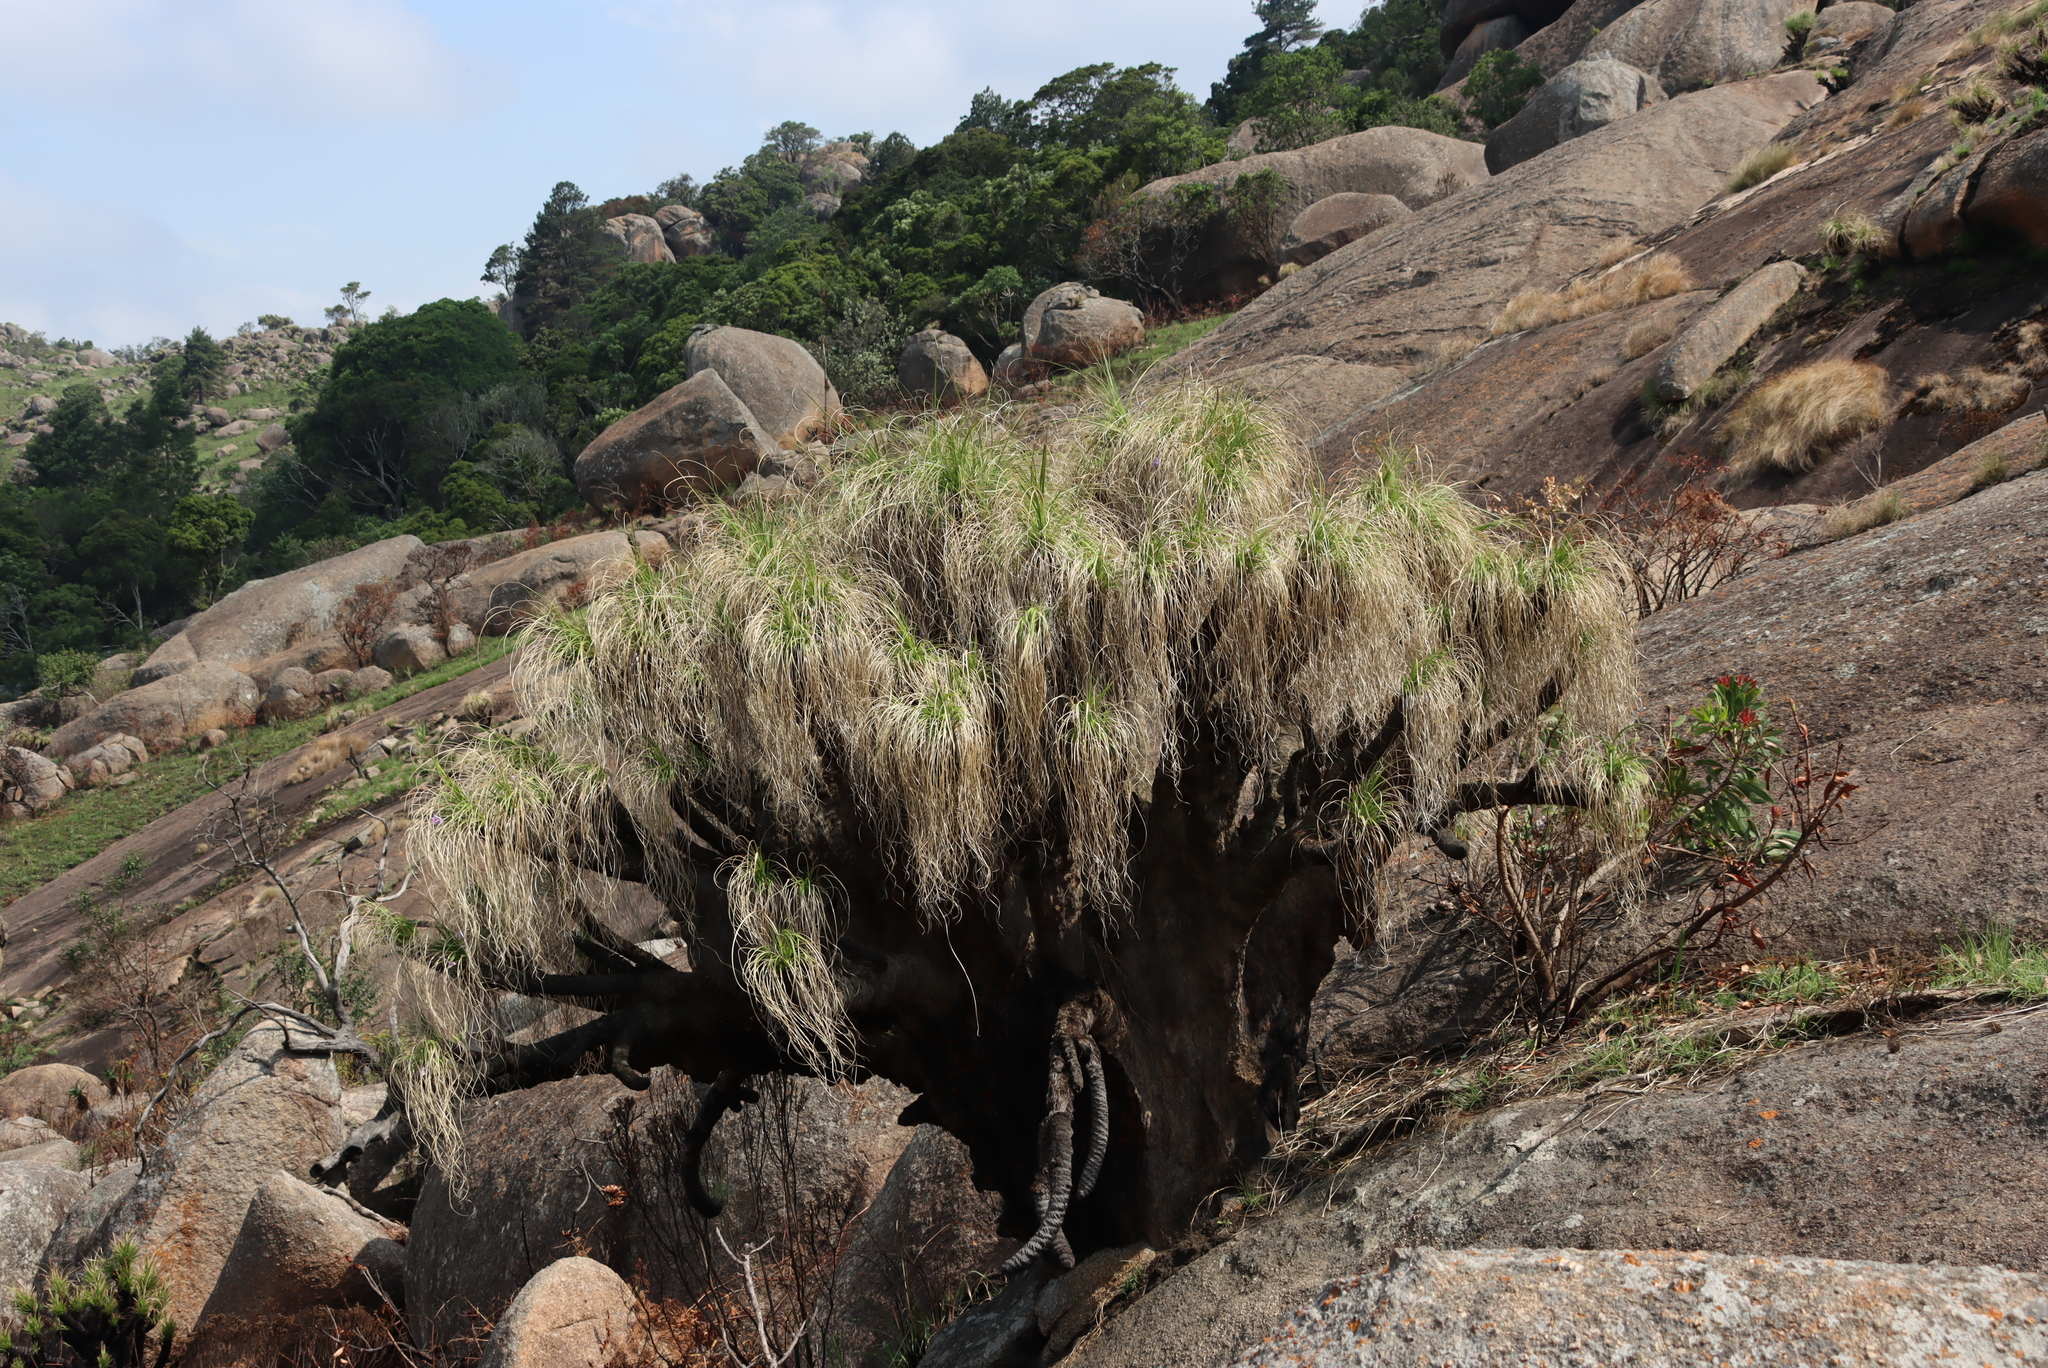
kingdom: Plantae
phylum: Tracheophyta
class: Liliopsida
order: Pandanales
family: Velloziaceae
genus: Xerophyta
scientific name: Xerophyta retinervis
